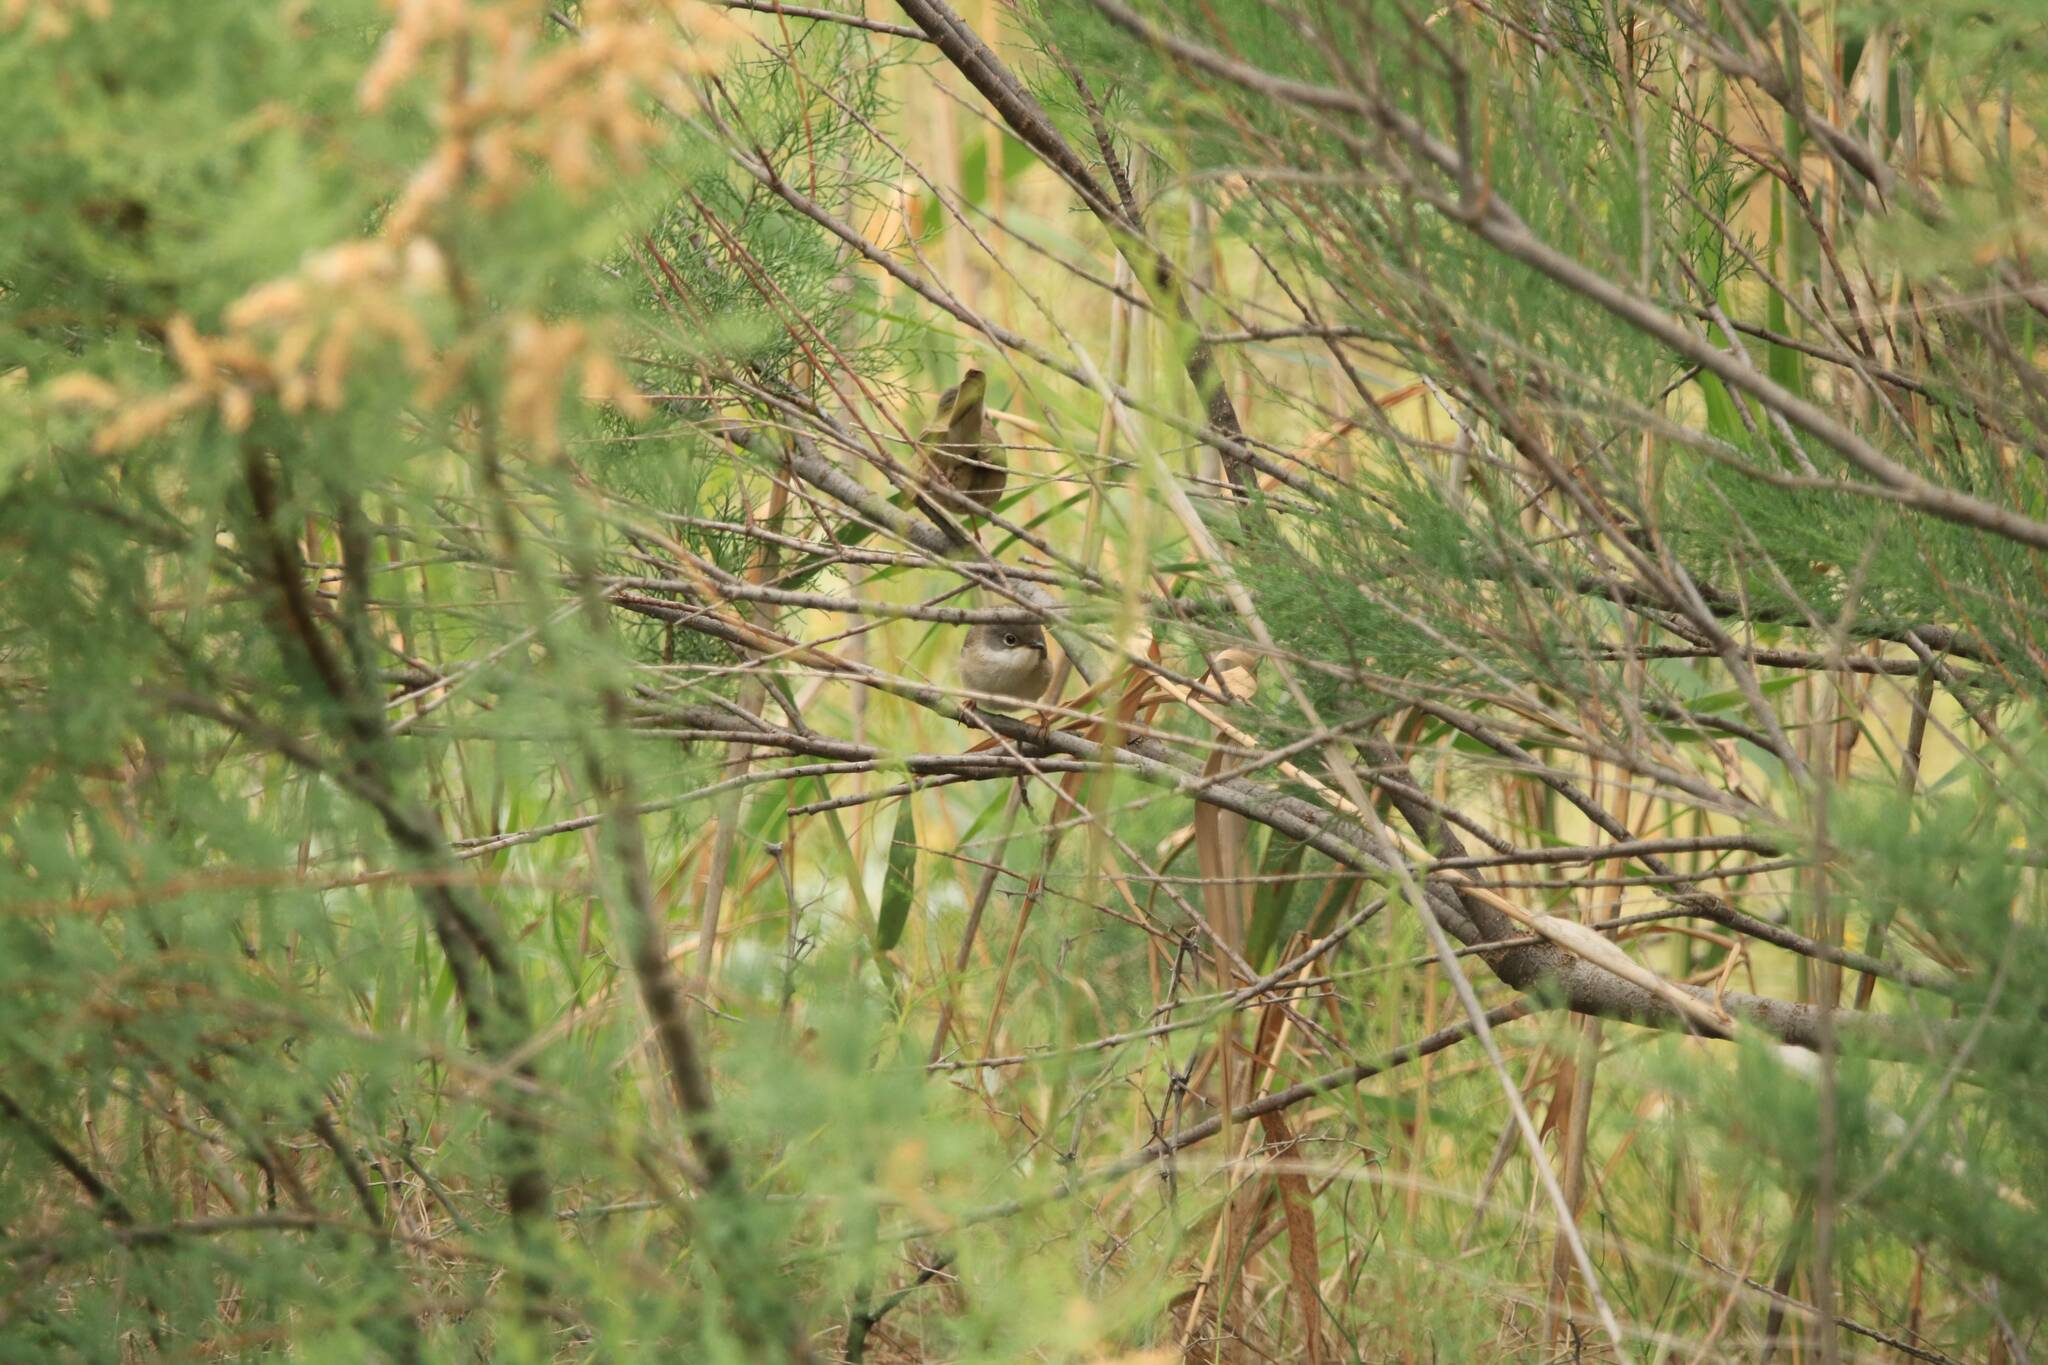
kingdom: Animalia
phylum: Chordata
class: Aves
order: Passeriformes
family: Sylviidae
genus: Curruca
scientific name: Curruca iberiae
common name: Western subalpine warbler
